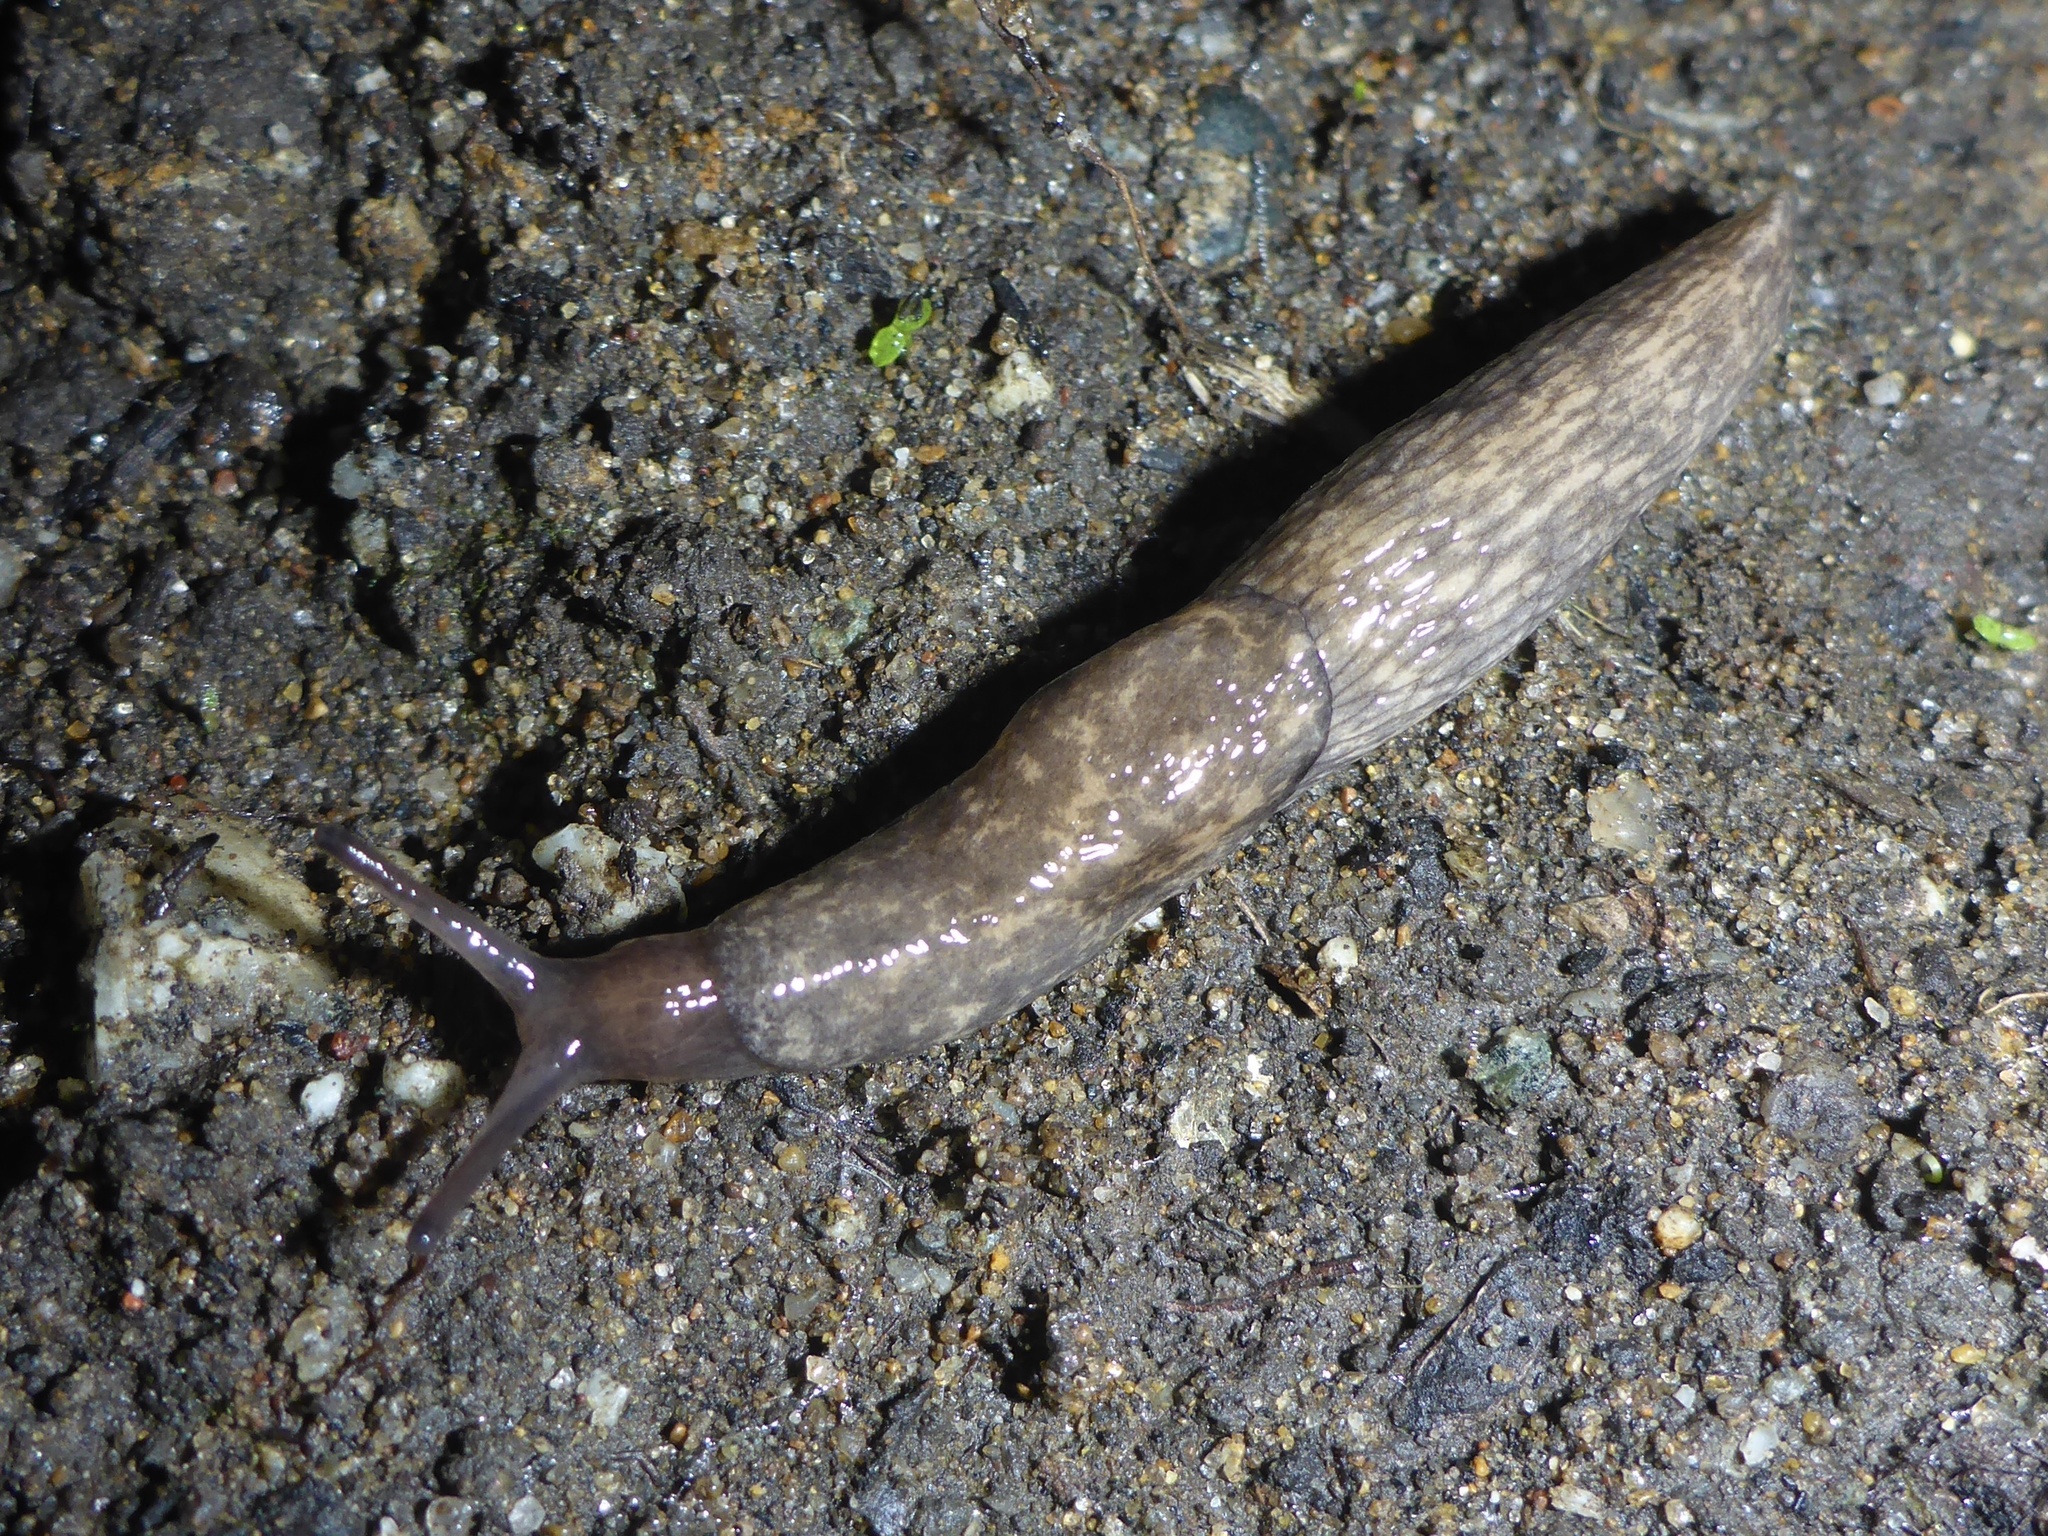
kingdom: Animalia
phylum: Mollusca
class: Gastropoda
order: Stylommatophora
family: Agriolimacidae
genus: Deroceras
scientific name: Deroceras reticulatum
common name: Gray field slug
